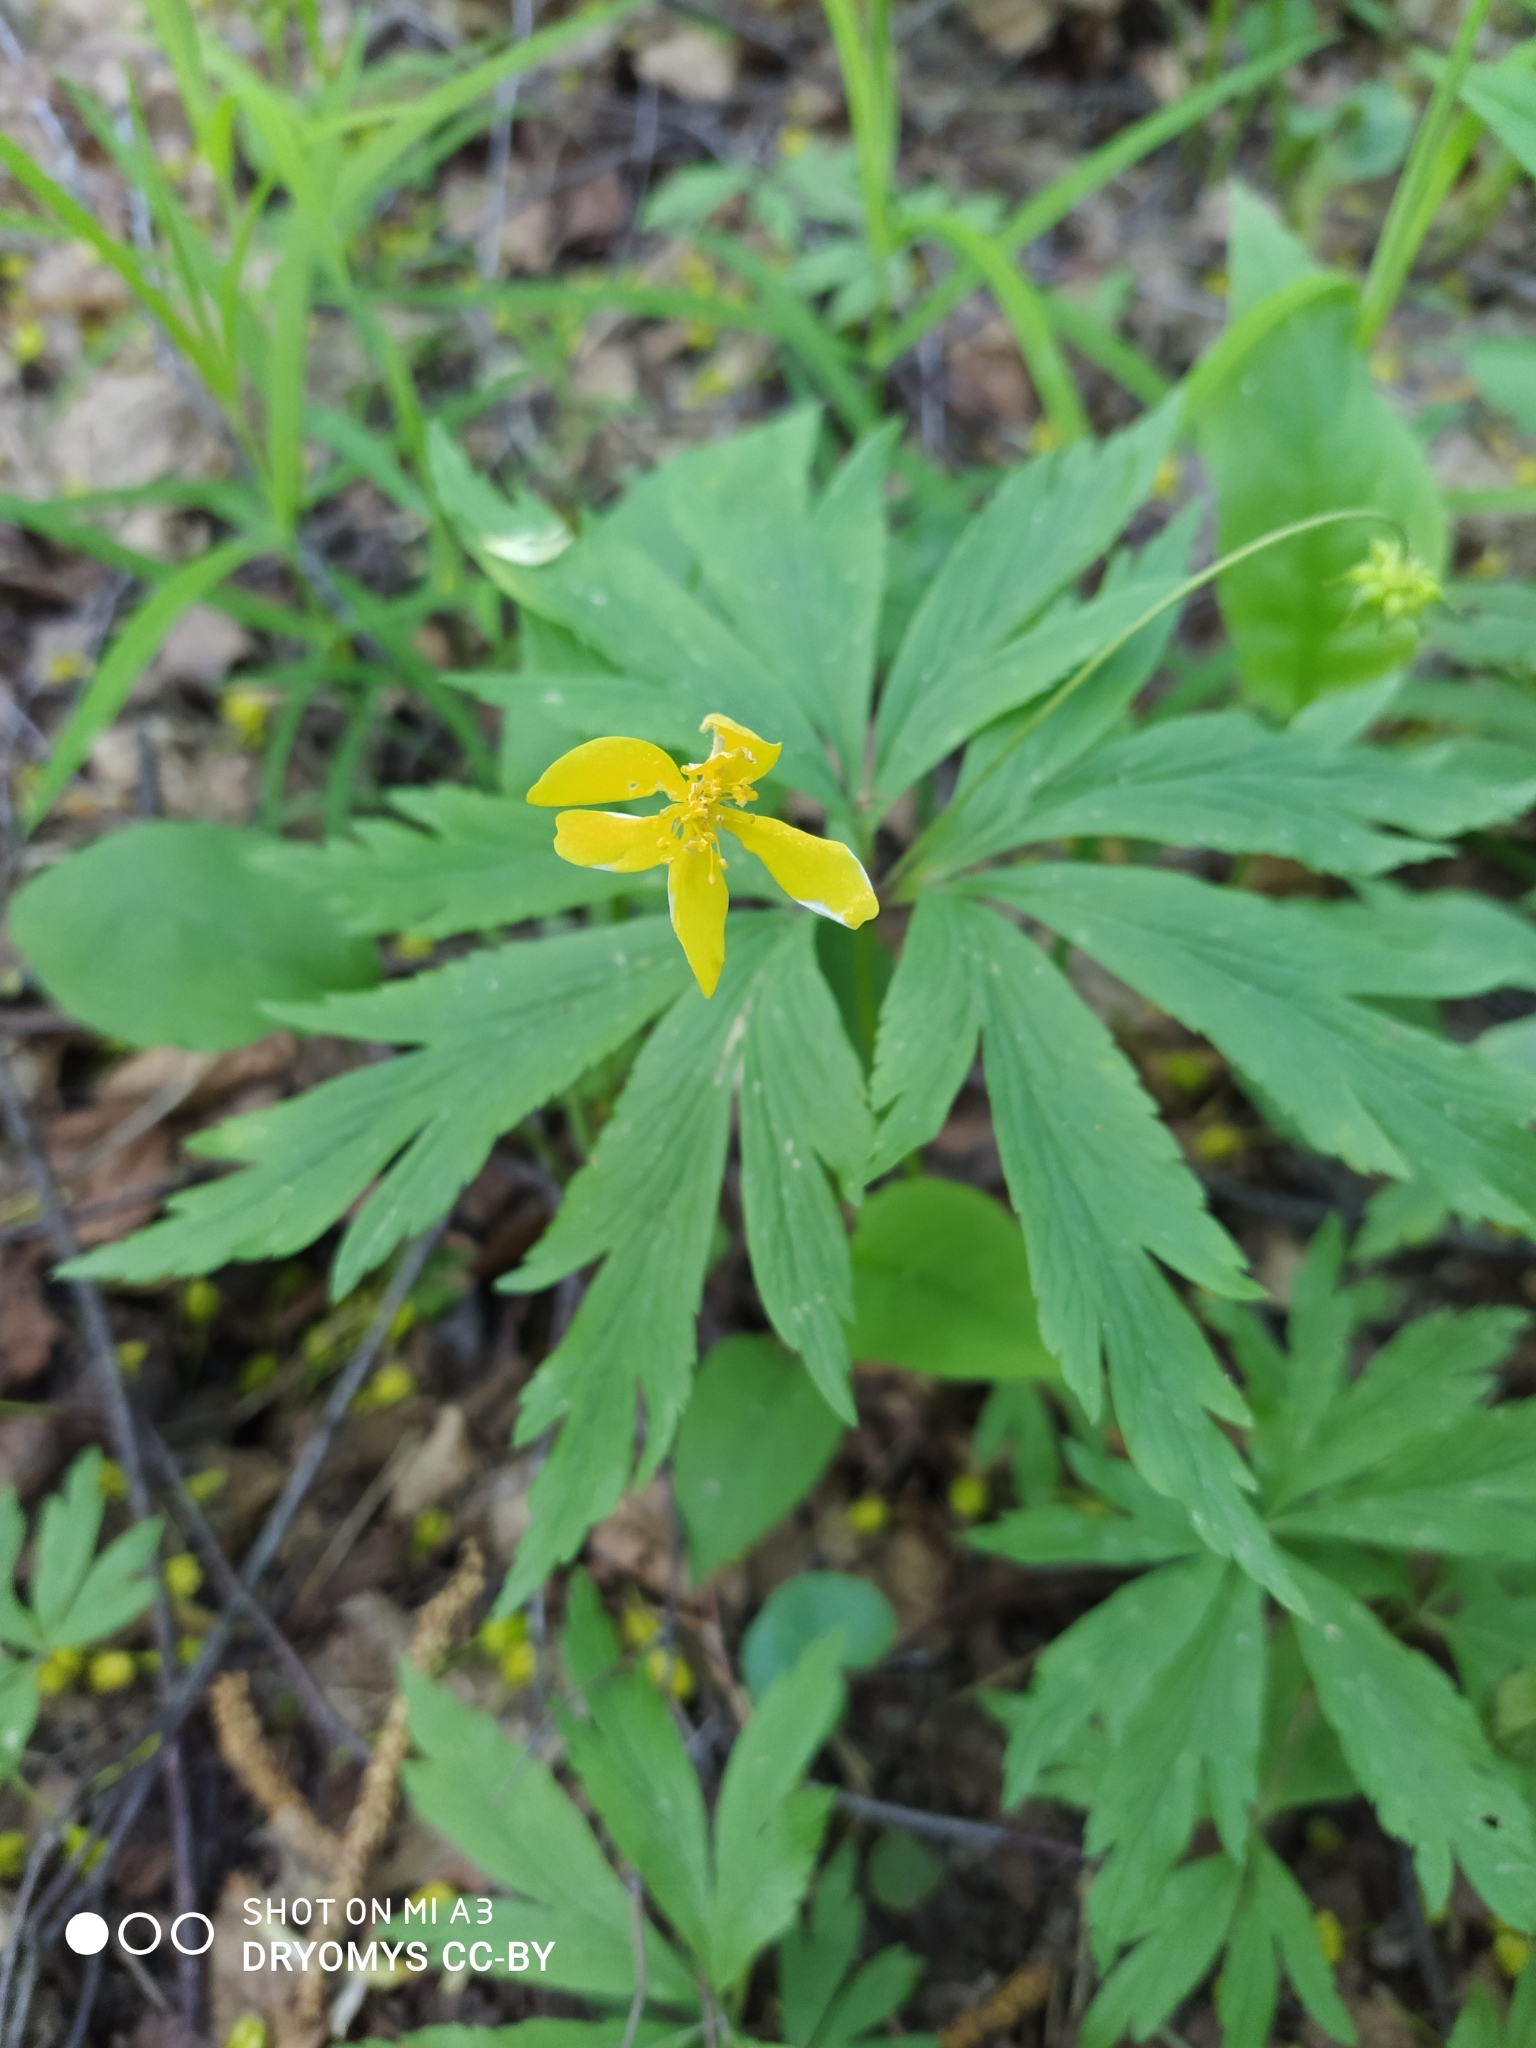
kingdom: Plantae
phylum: Tracheophyta
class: Magnoliopsida
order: Ranunculales
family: Ranunculaceae
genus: Anemone
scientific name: Anemone ranunculoides
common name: Yellow anemone
